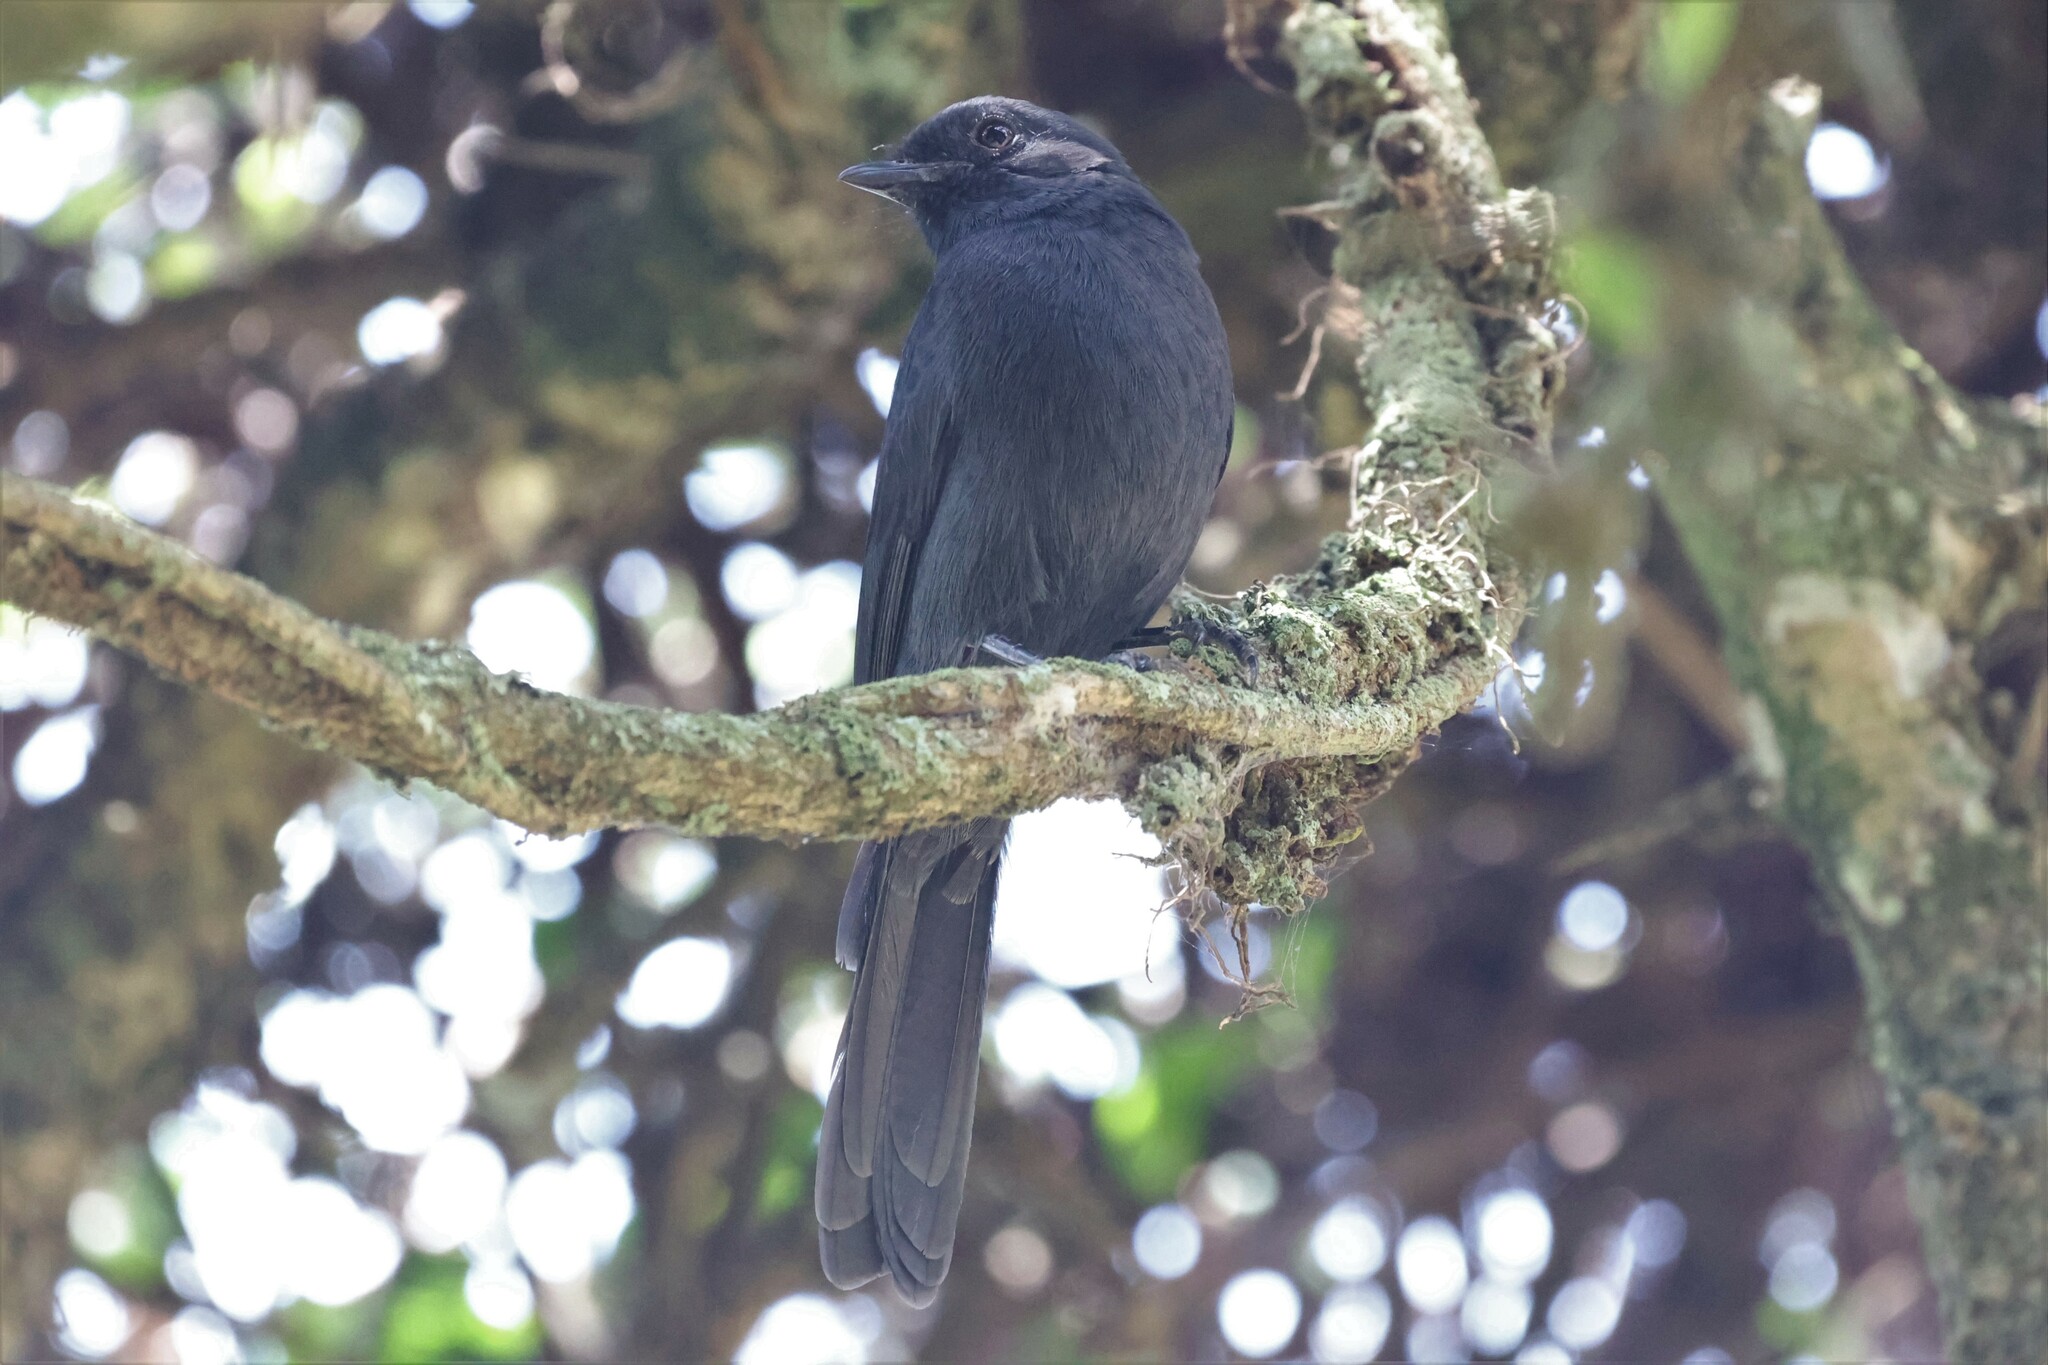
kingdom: Animalia
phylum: Chordata
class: Aves
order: Passeriformes
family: Muscicapidae
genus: Melaenornis
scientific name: Melaenornis edolioides
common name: Northern black flycatcher
